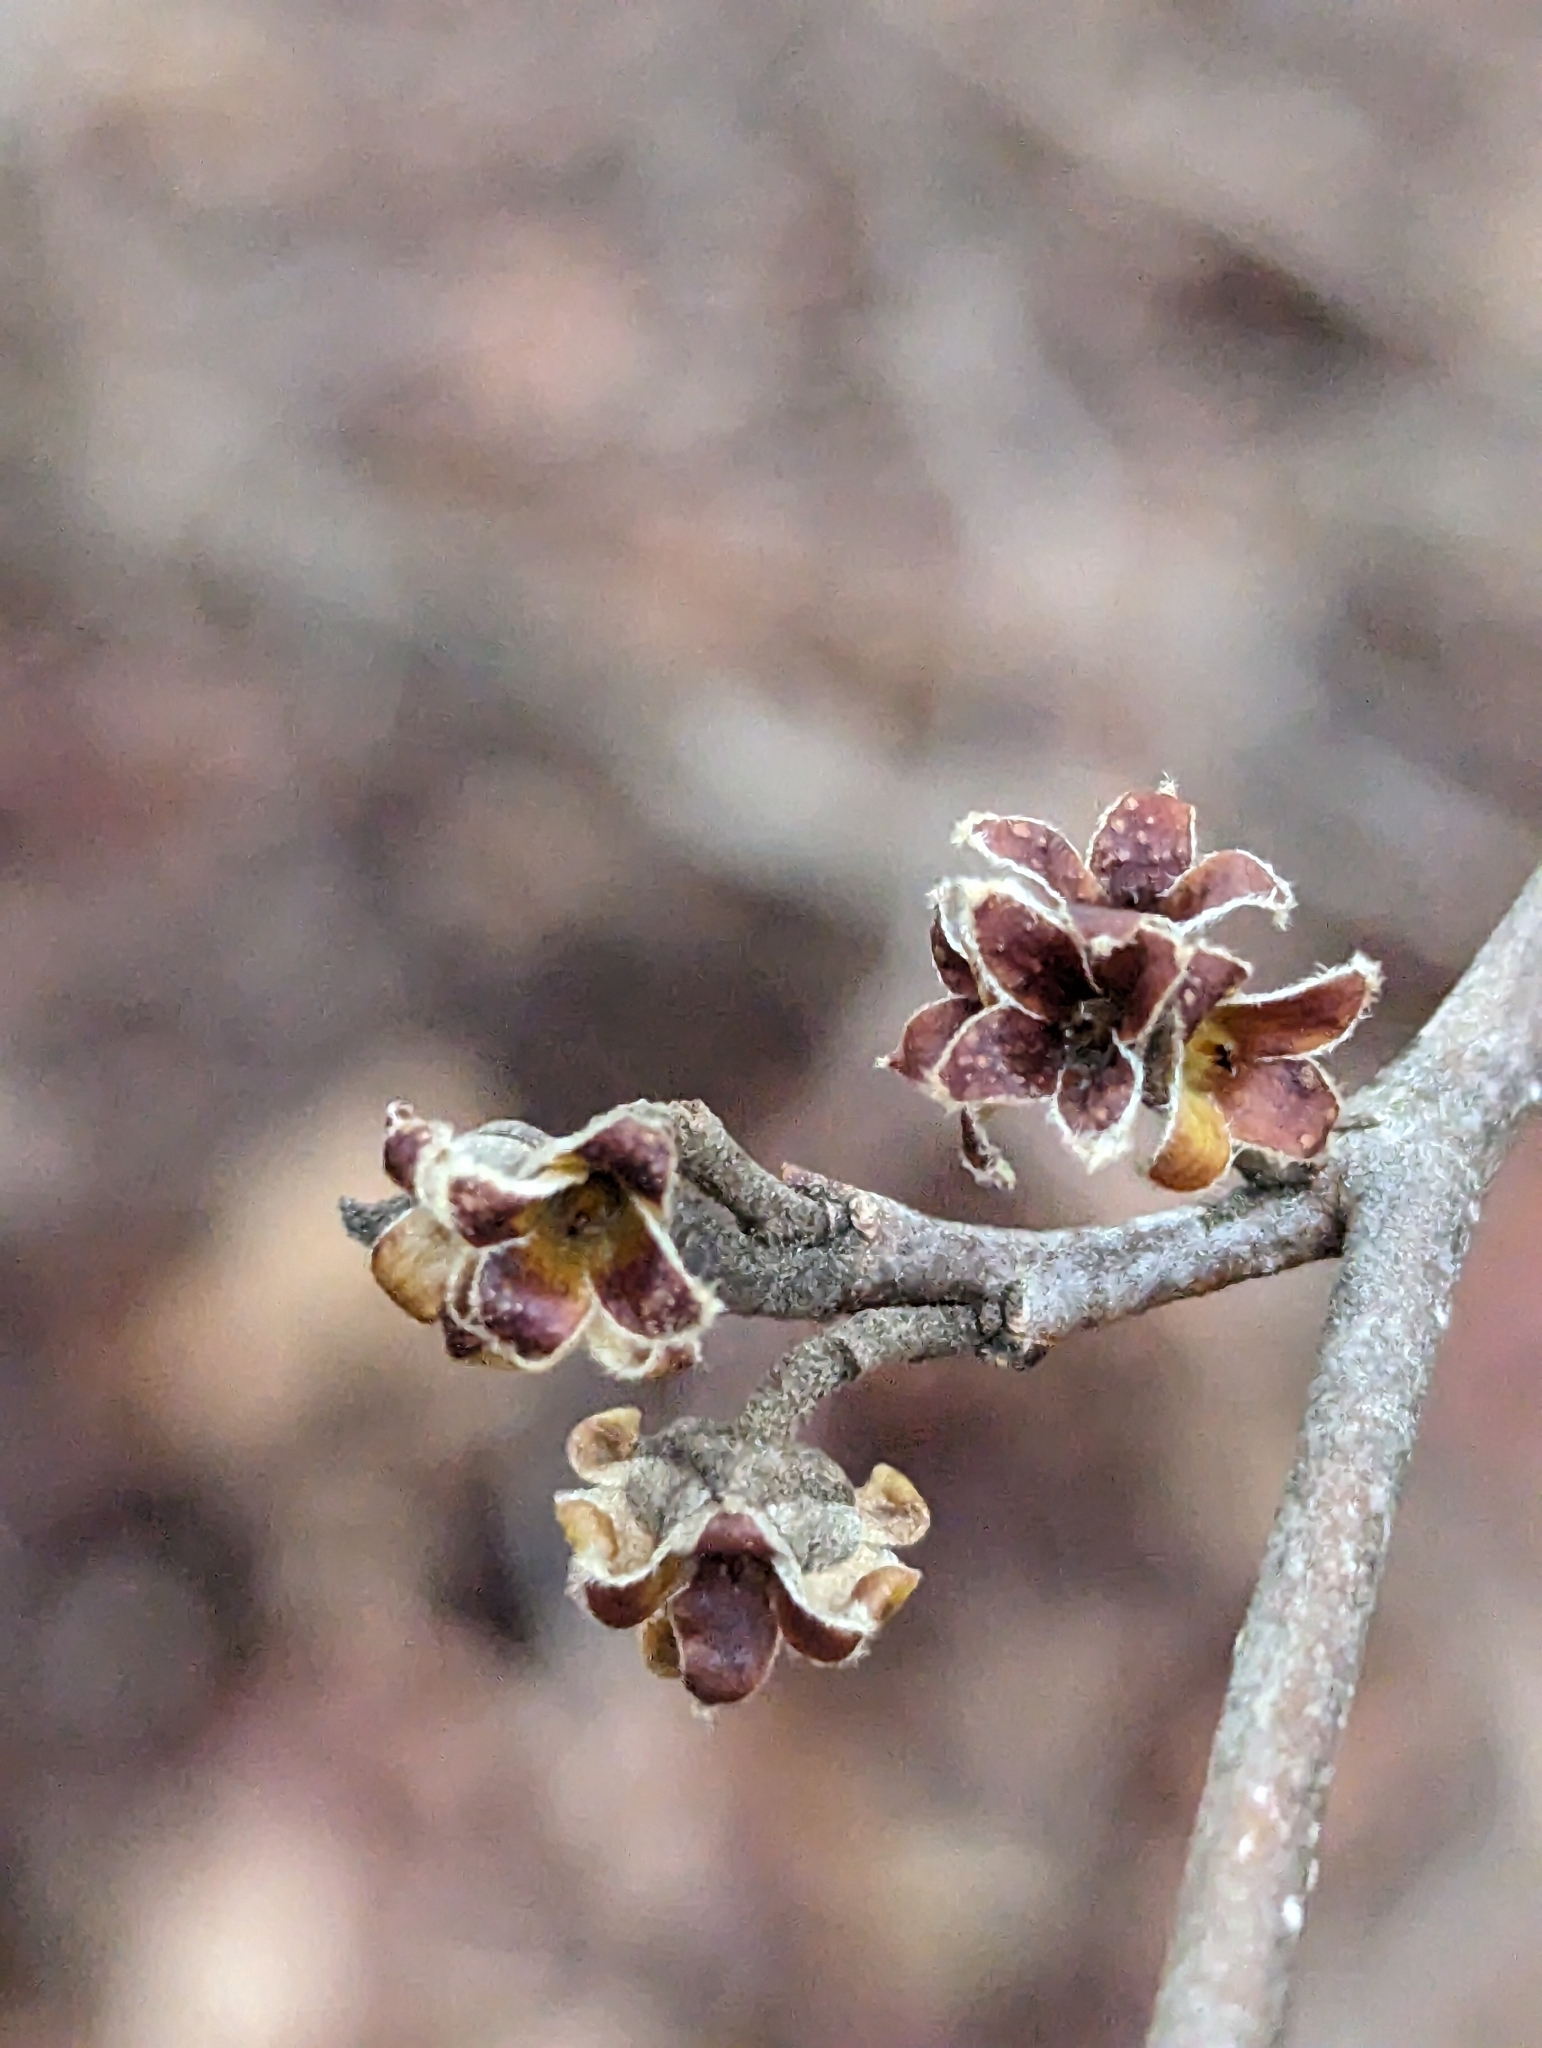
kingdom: Plantae
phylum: Tracheophyta
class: Magnoliopsida
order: Saxifragales
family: Hamamelidaceae
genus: Hamamelis
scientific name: Hamamelis virginiana
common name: Witch-hazel
